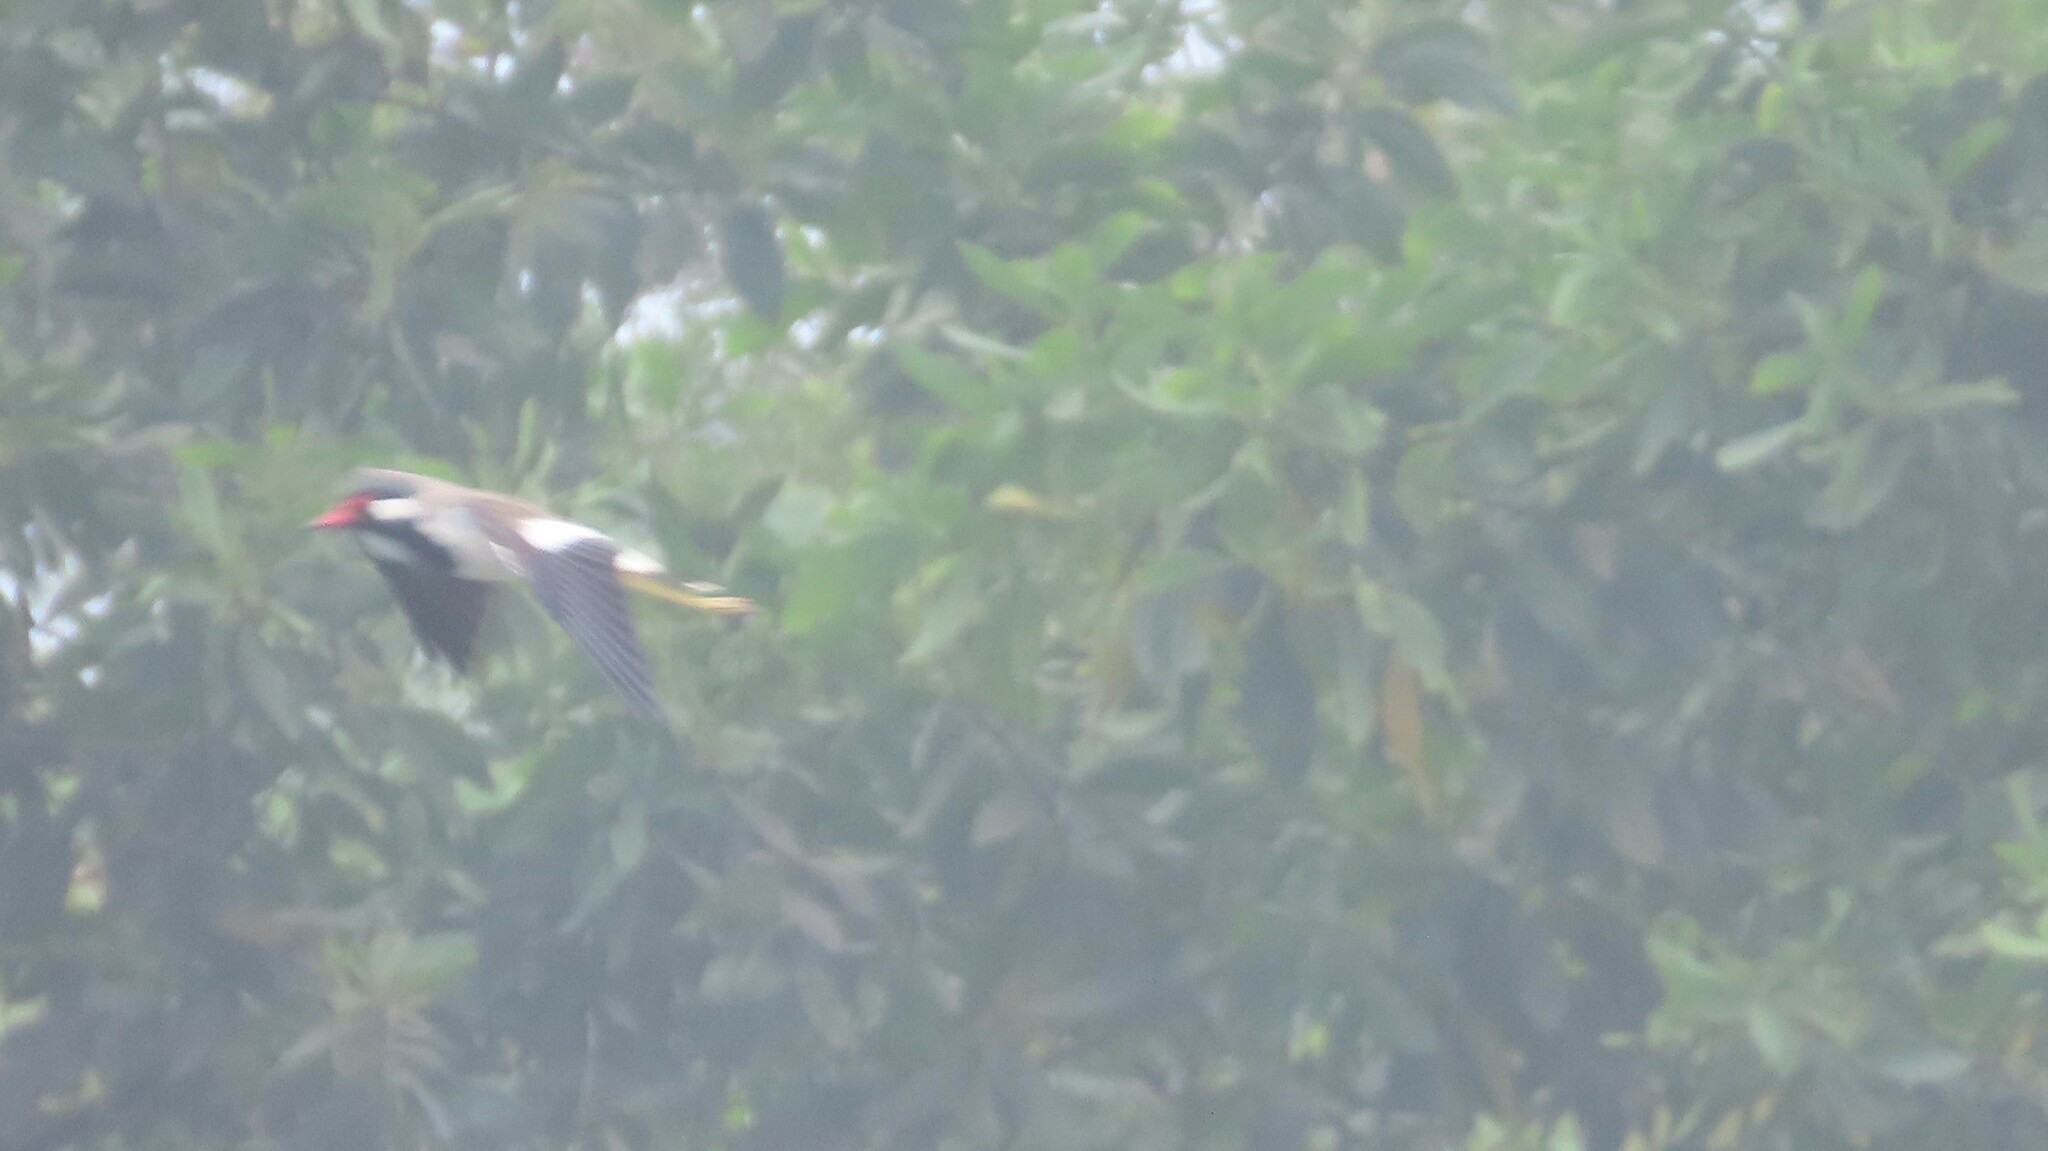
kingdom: Animalia
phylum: Chordata
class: Aves
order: Charadriiformes
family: Charadriidae
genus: Vanellus
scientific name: Vanellus indicus
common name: Red-wattled lapwing
